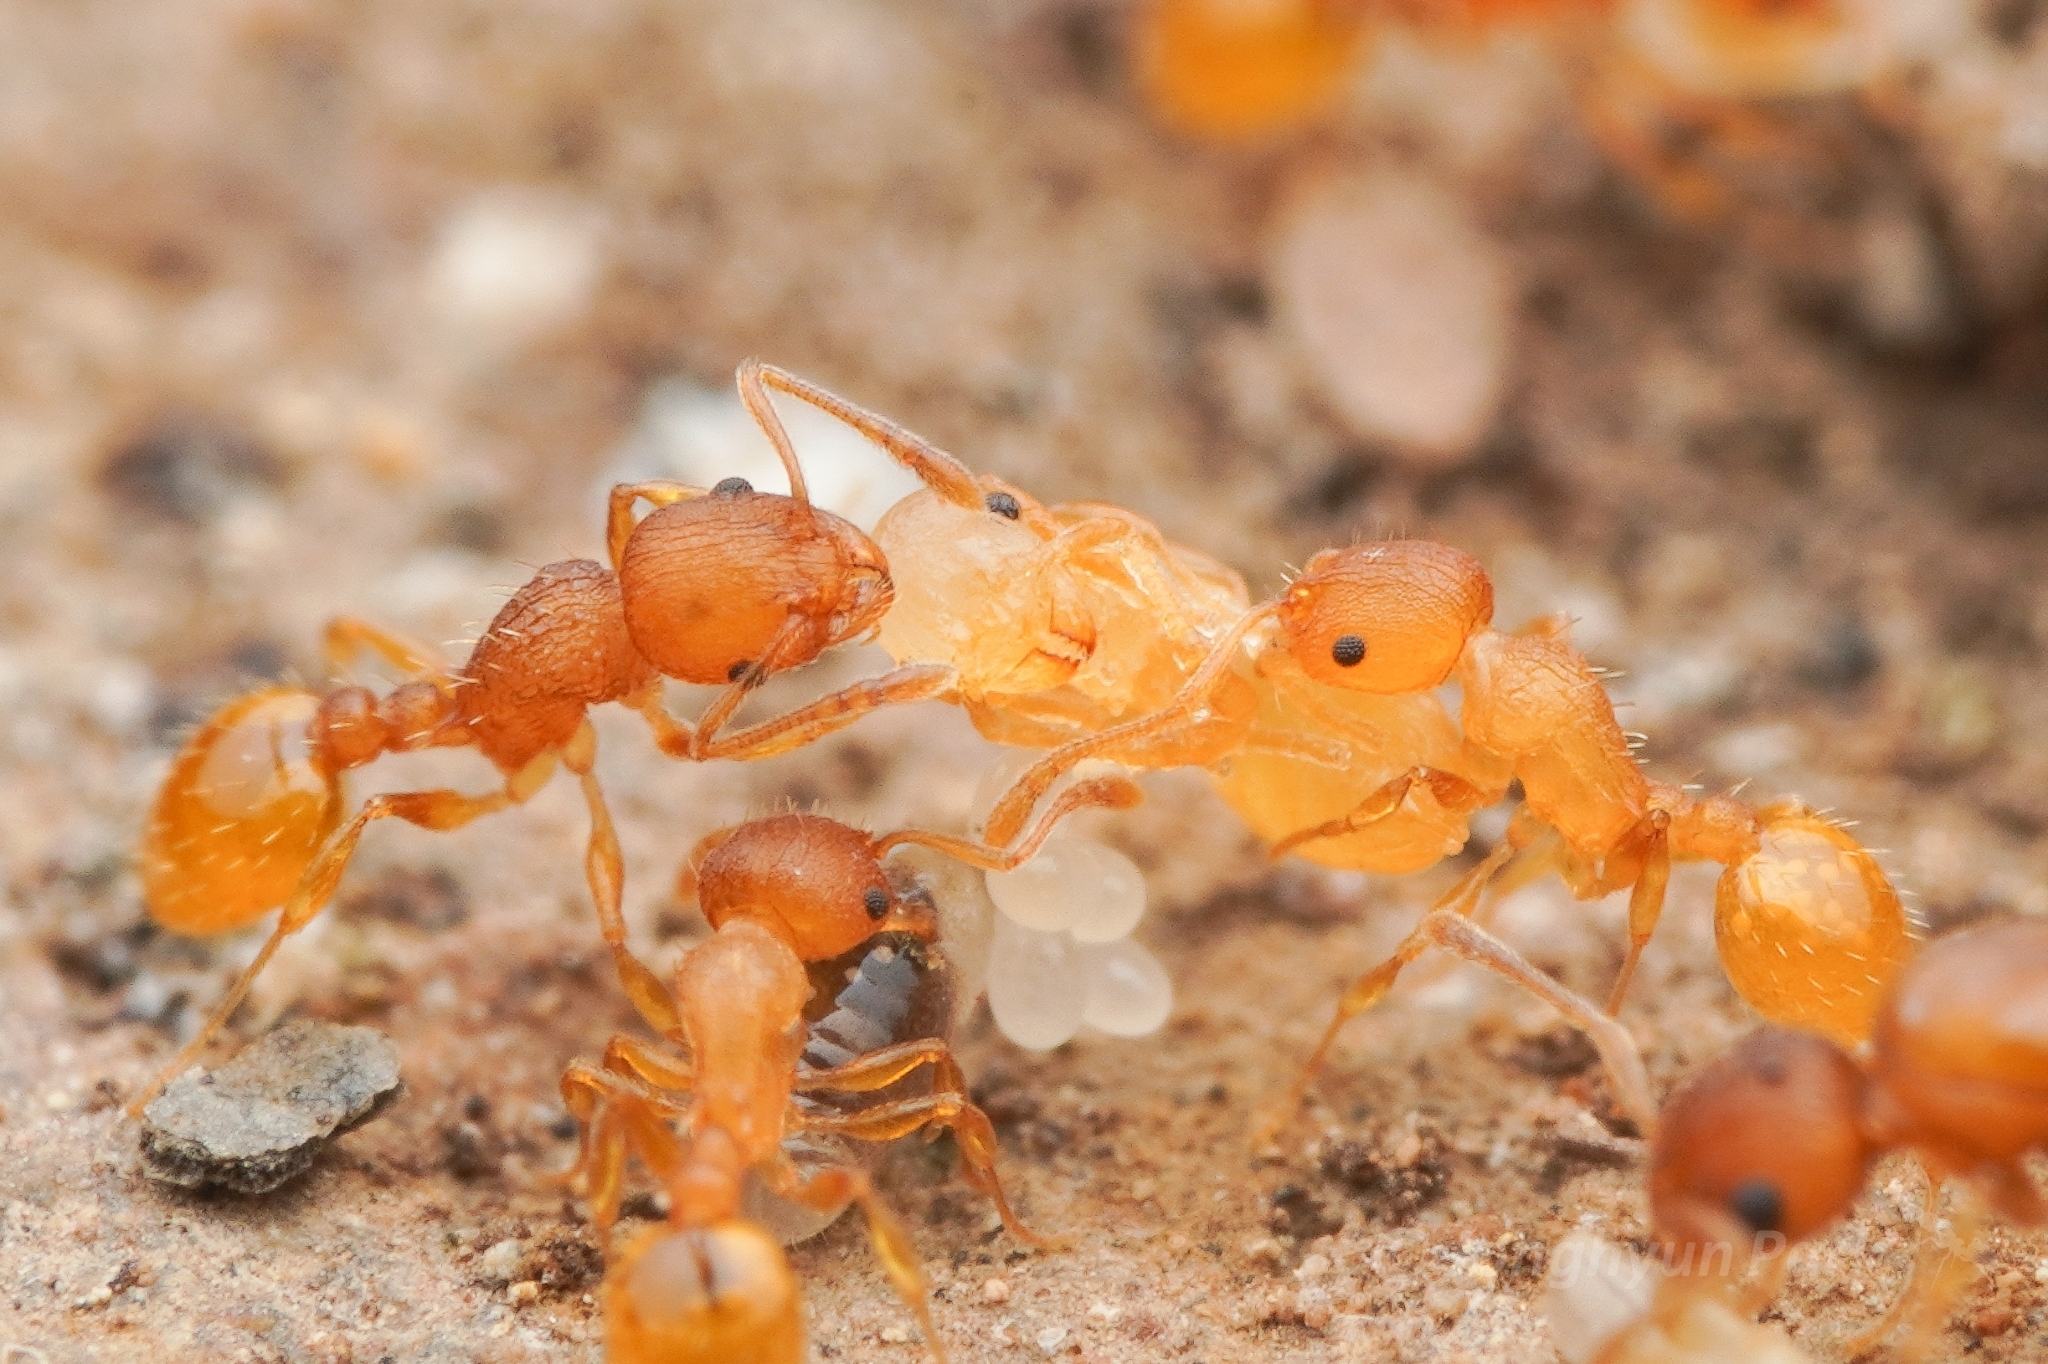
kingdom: Animalia
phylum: Arthropoda
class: Insecta
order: Hymenoptera
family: Formicidae
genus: Temnothorax
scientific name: Temnothorax
